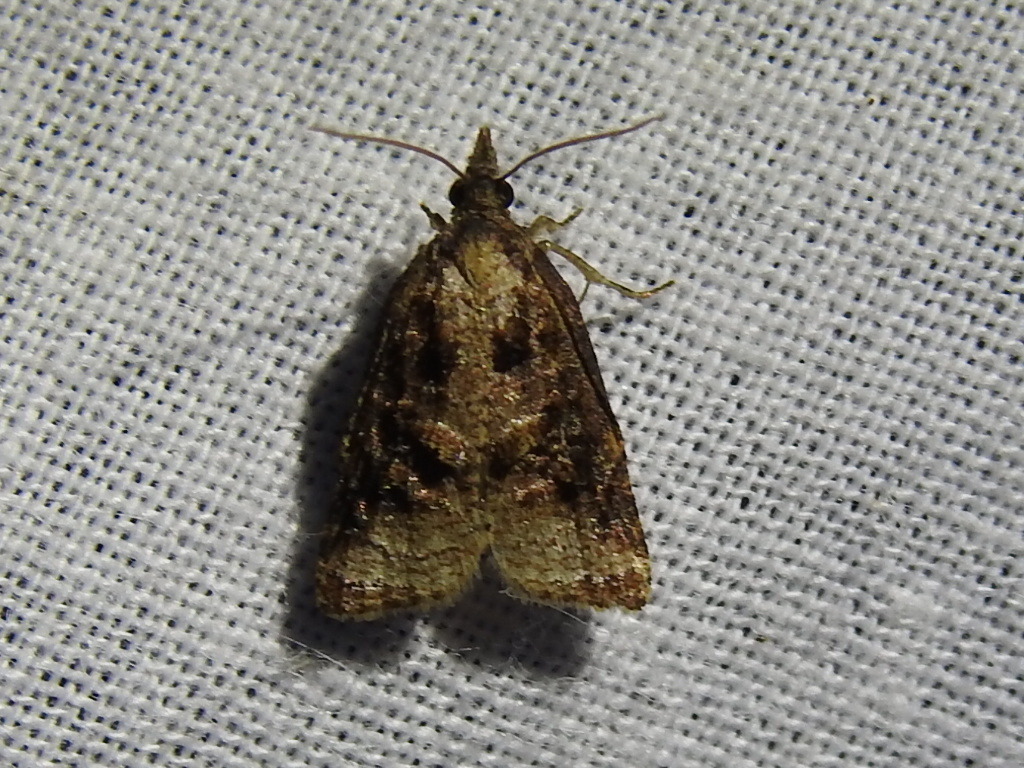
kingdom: Animalia
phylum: Arthropoda
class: Insecta
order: Lepidoptera
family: Tortricidae
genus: Platynota
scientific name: Platynota flavedana
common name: Black-shaded platynota moth
